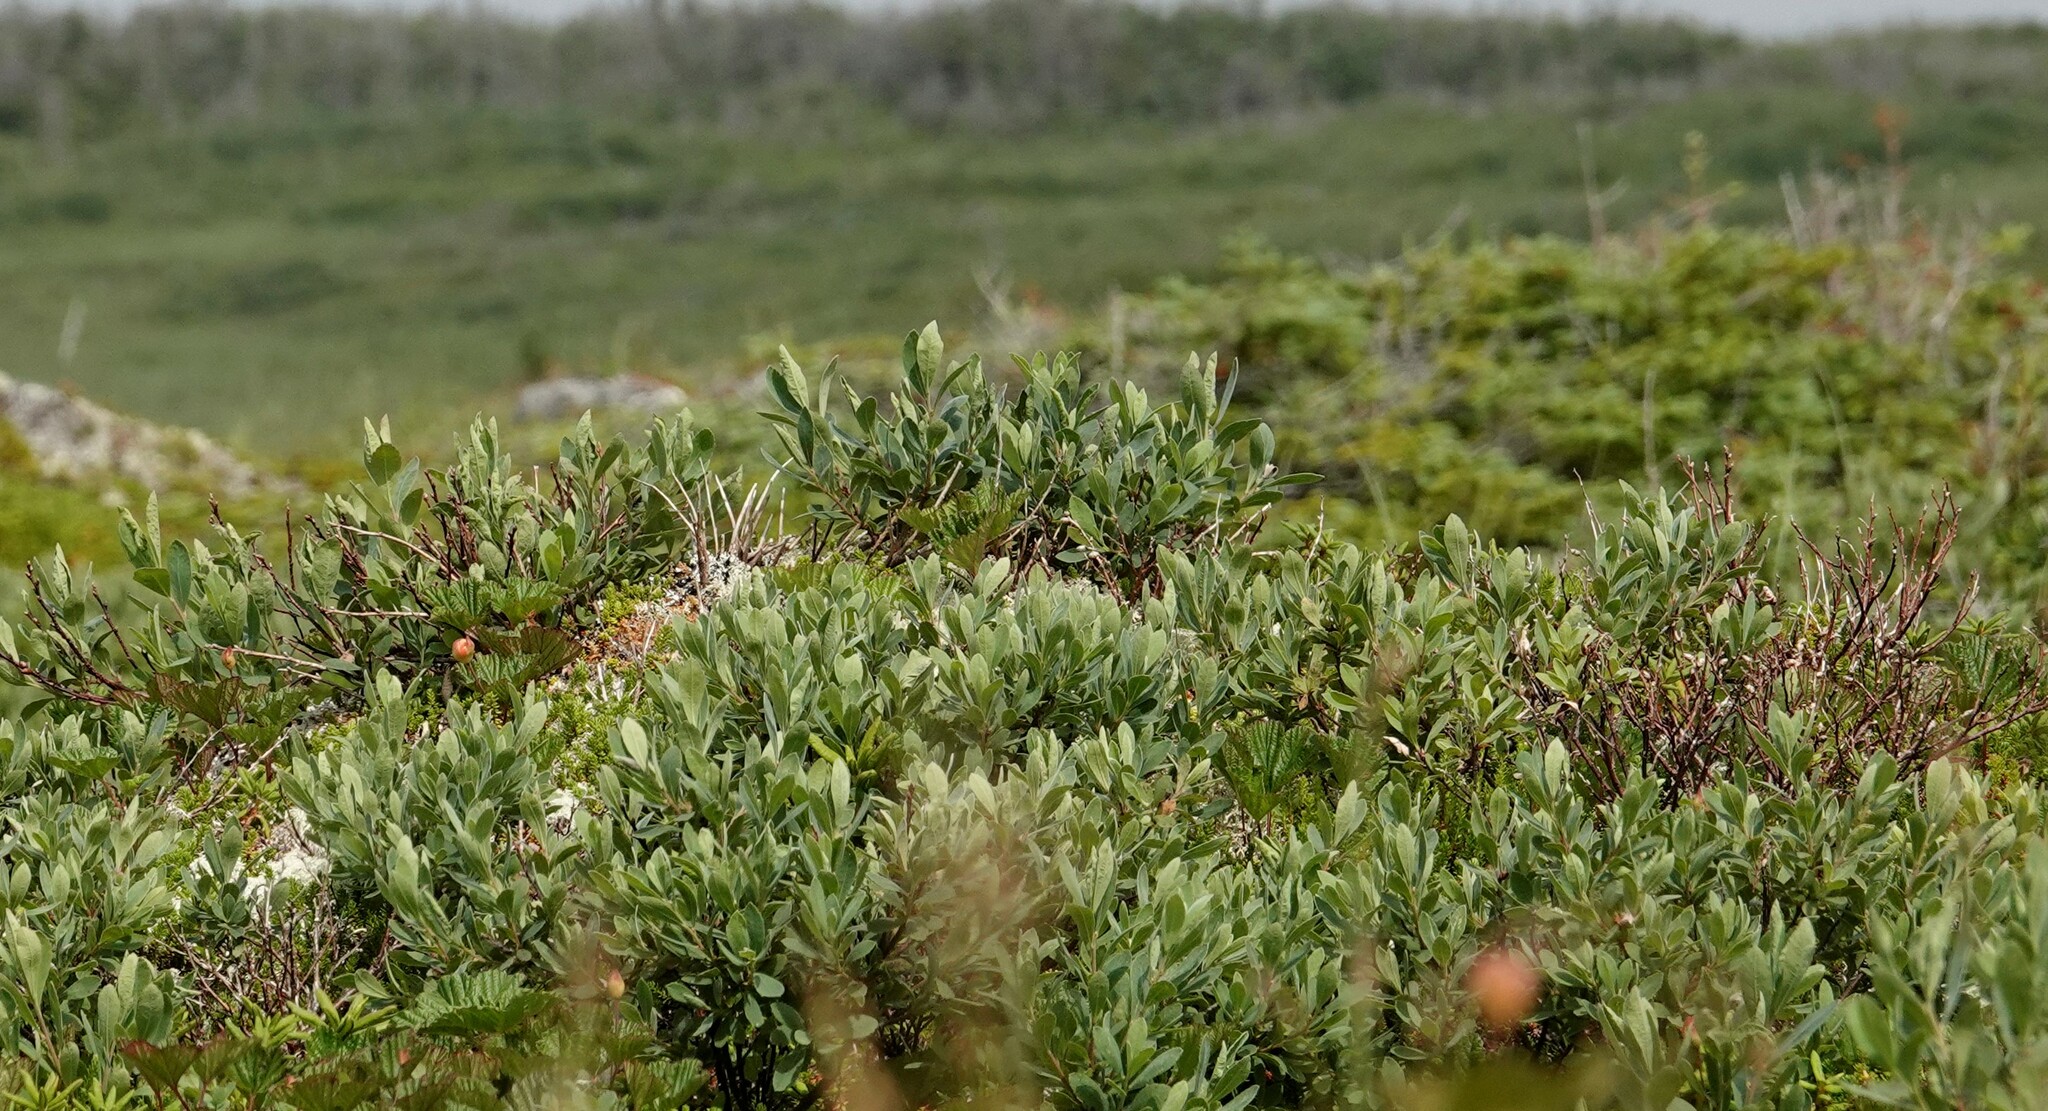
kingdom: Plantae
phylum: Tracheophyta
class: Magnoliopsida
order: Fagales
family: Myricaceae
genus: Myrica
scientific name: Myrica gale
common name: Sweet gale
